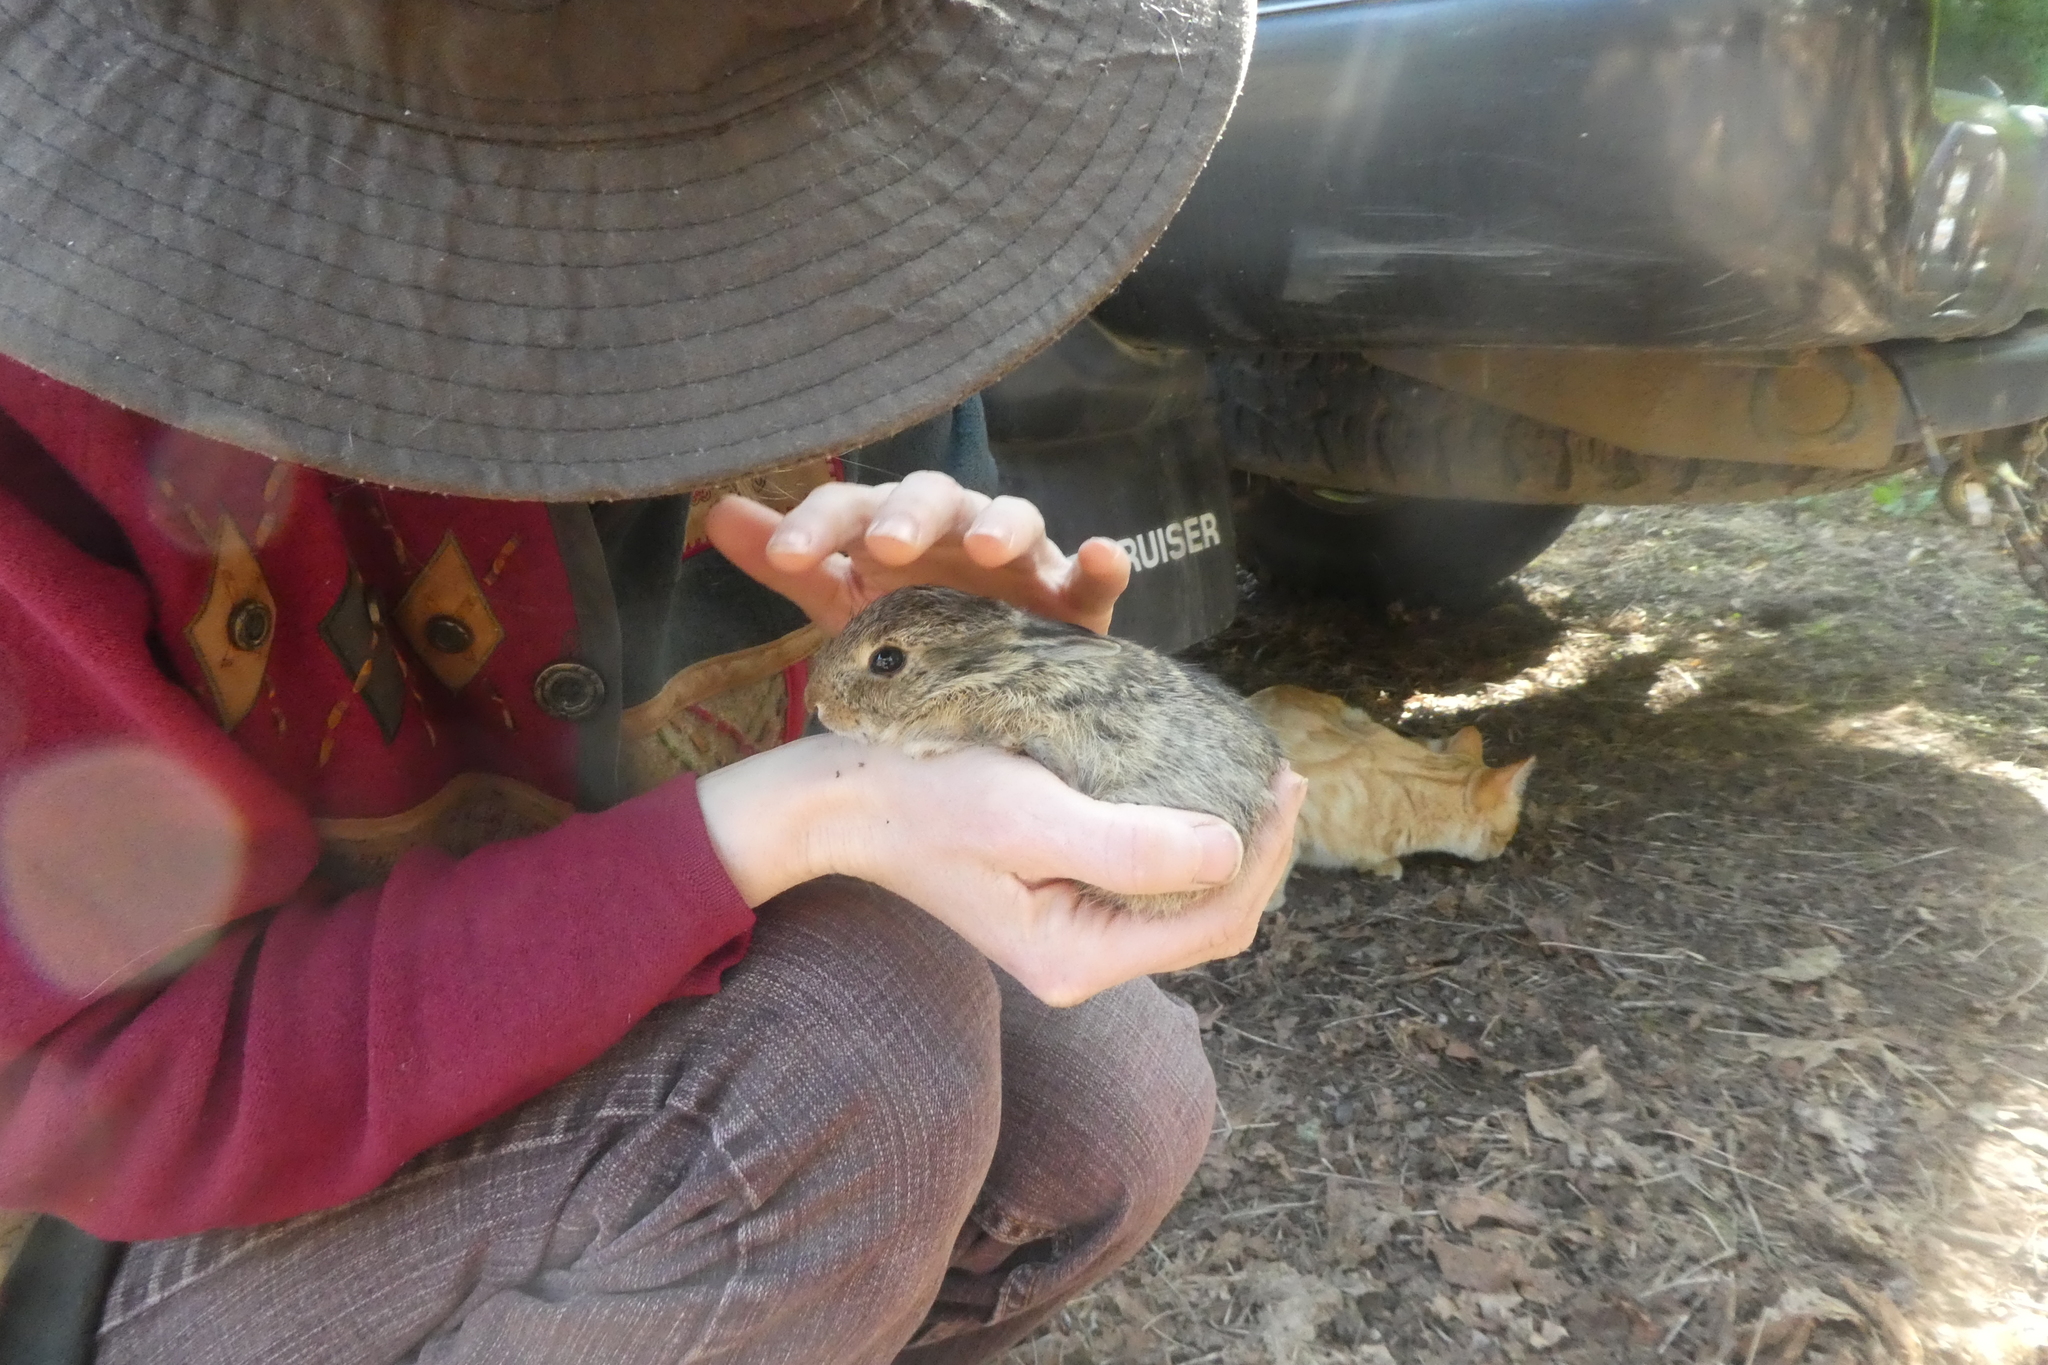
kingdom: Animalia
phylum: Chordata
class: Mammalia
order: Lagomorpha
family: Leporidae
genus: Sylvilagus
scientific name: Sylvilagus floridanus
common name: Eastern cottontail
